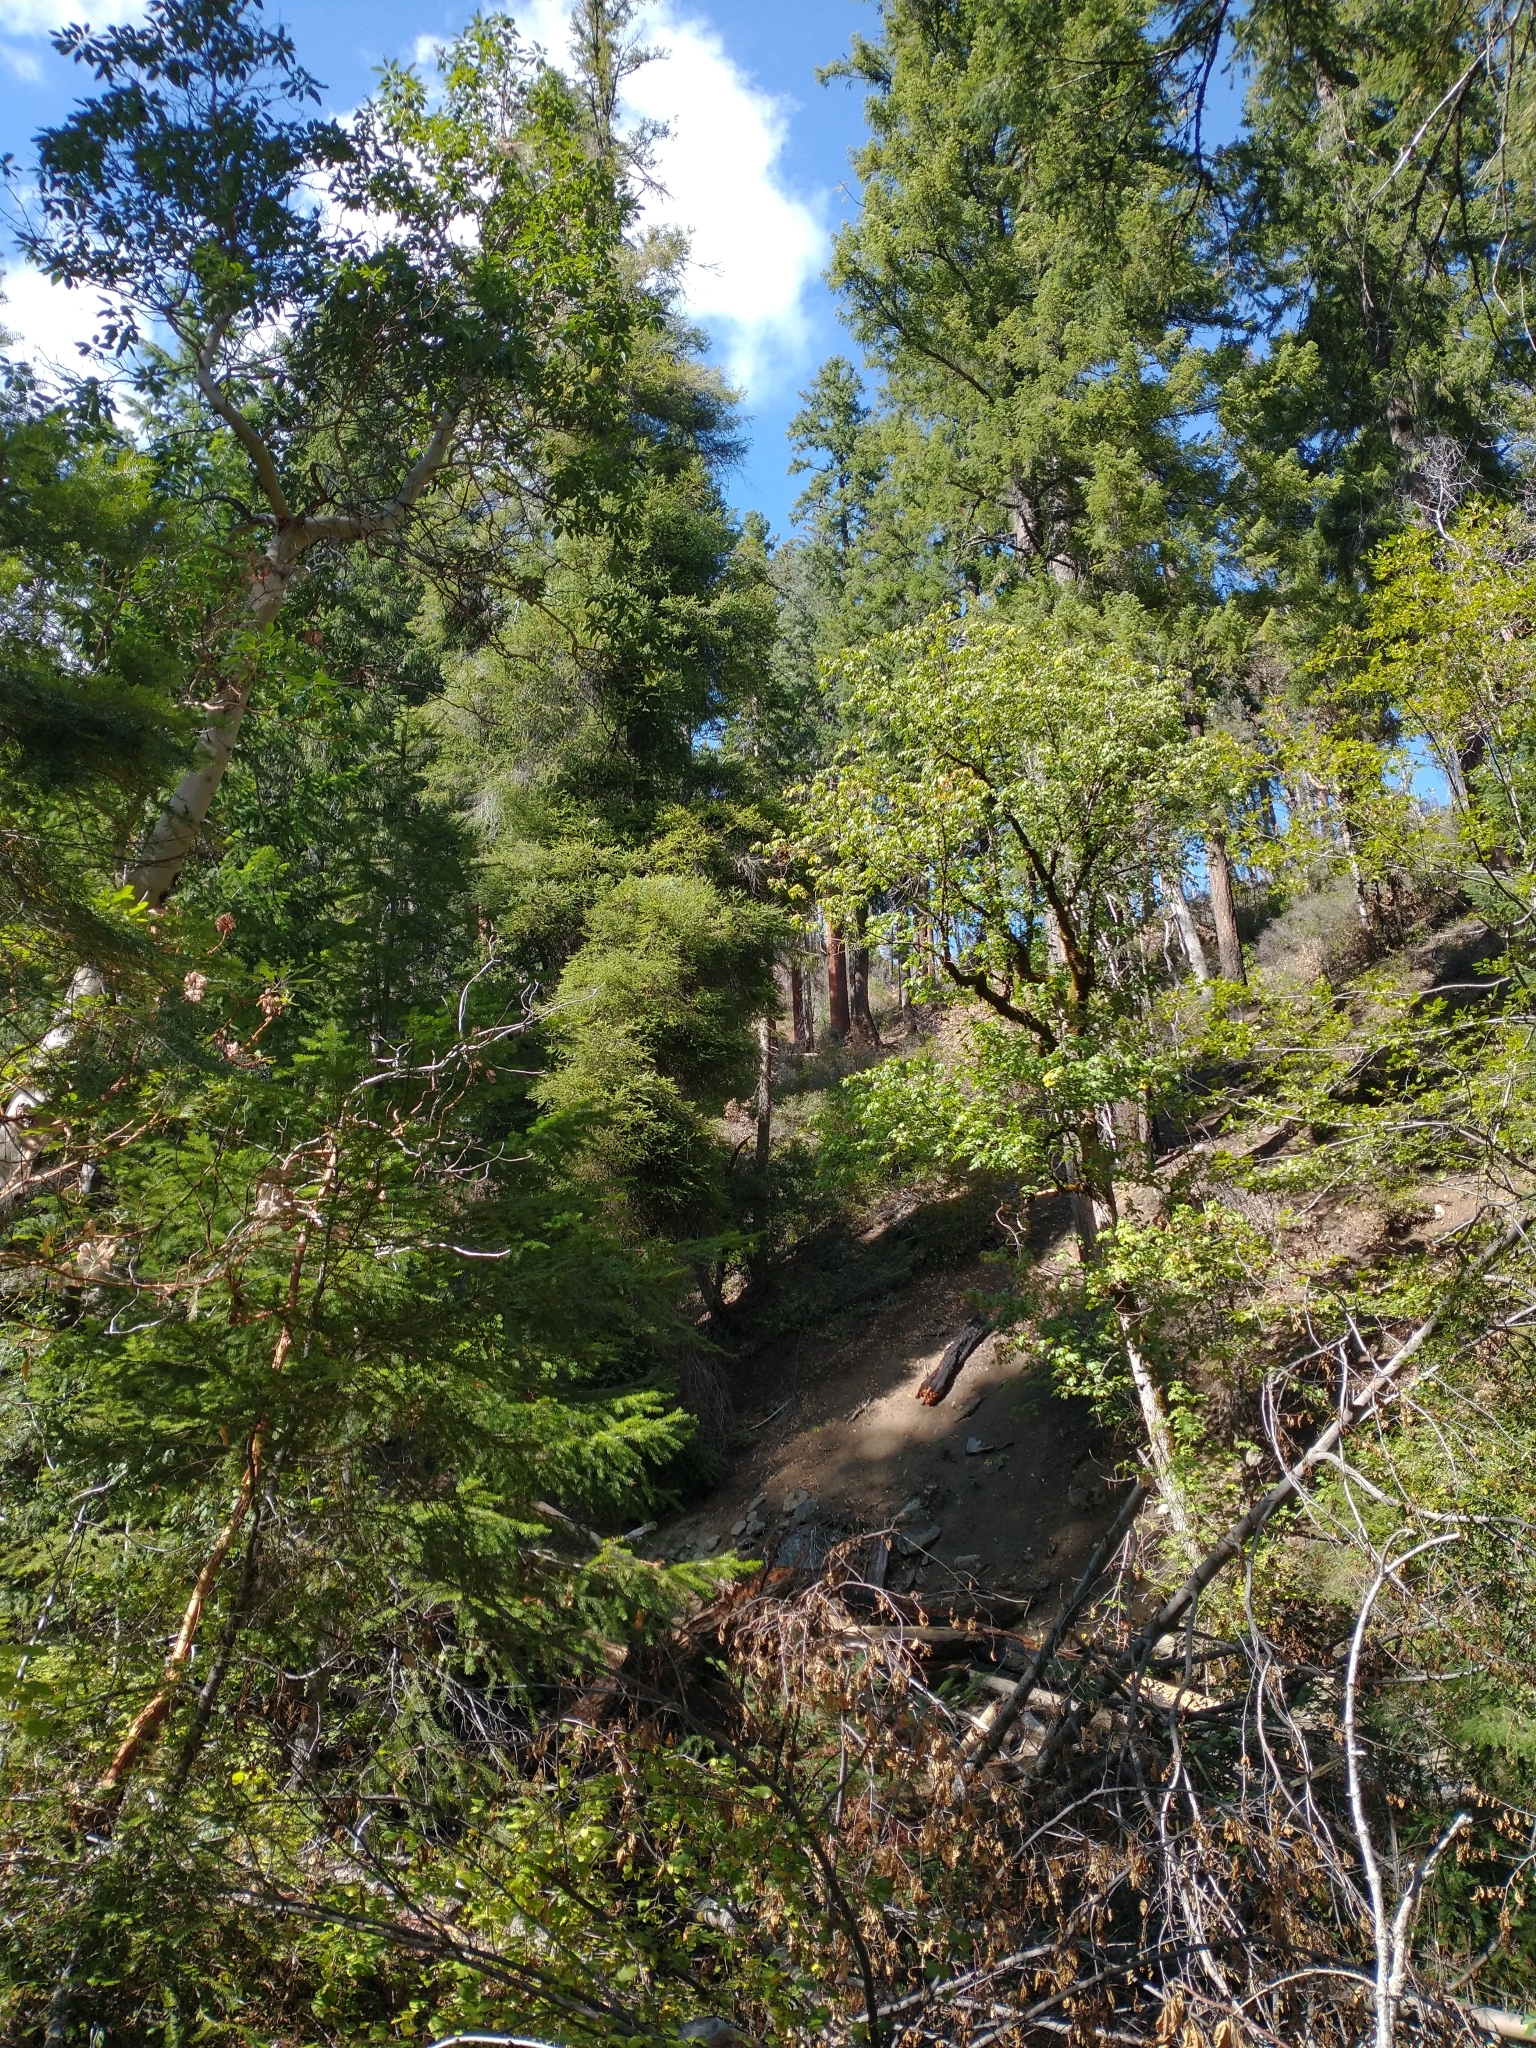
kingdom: Plantae
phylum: Tracheophyta
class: Pinopsida
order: Pinales
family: Pinaceae
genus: Pseudotsuga
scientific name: Pseudotsuga menziesii
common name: Douglas fir
